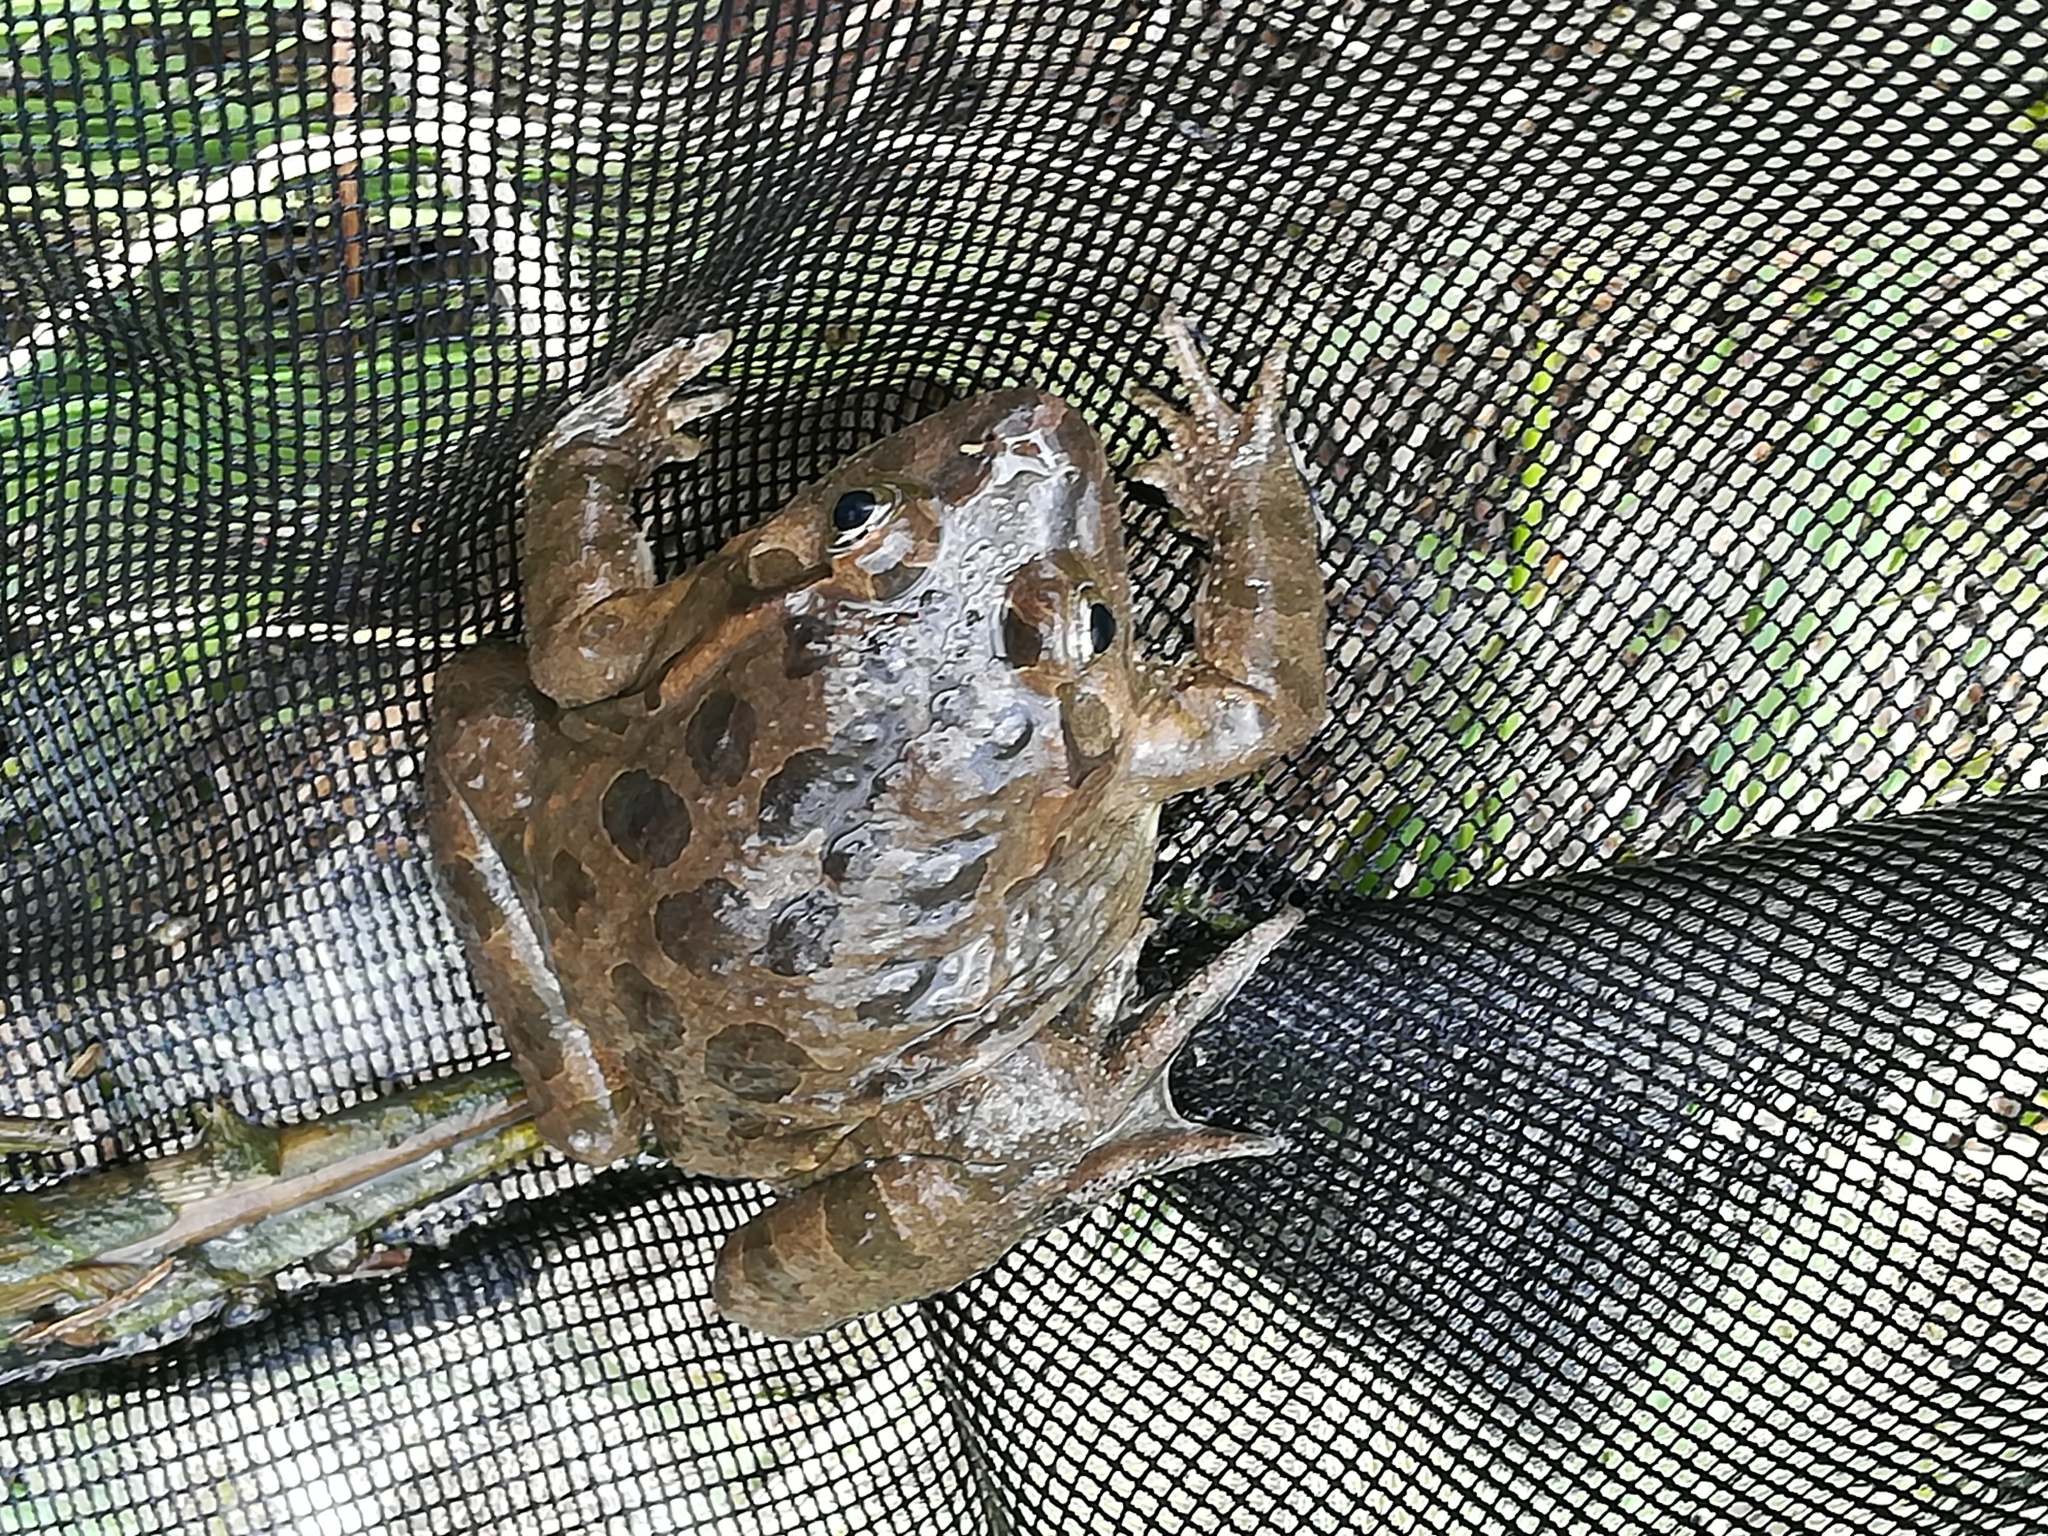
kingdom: Animalia
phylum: Chordata
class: Amphibia
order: Anura
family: Alytidae
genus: Discoglossus
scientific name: Discoglossus pictus
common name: Painted frog
